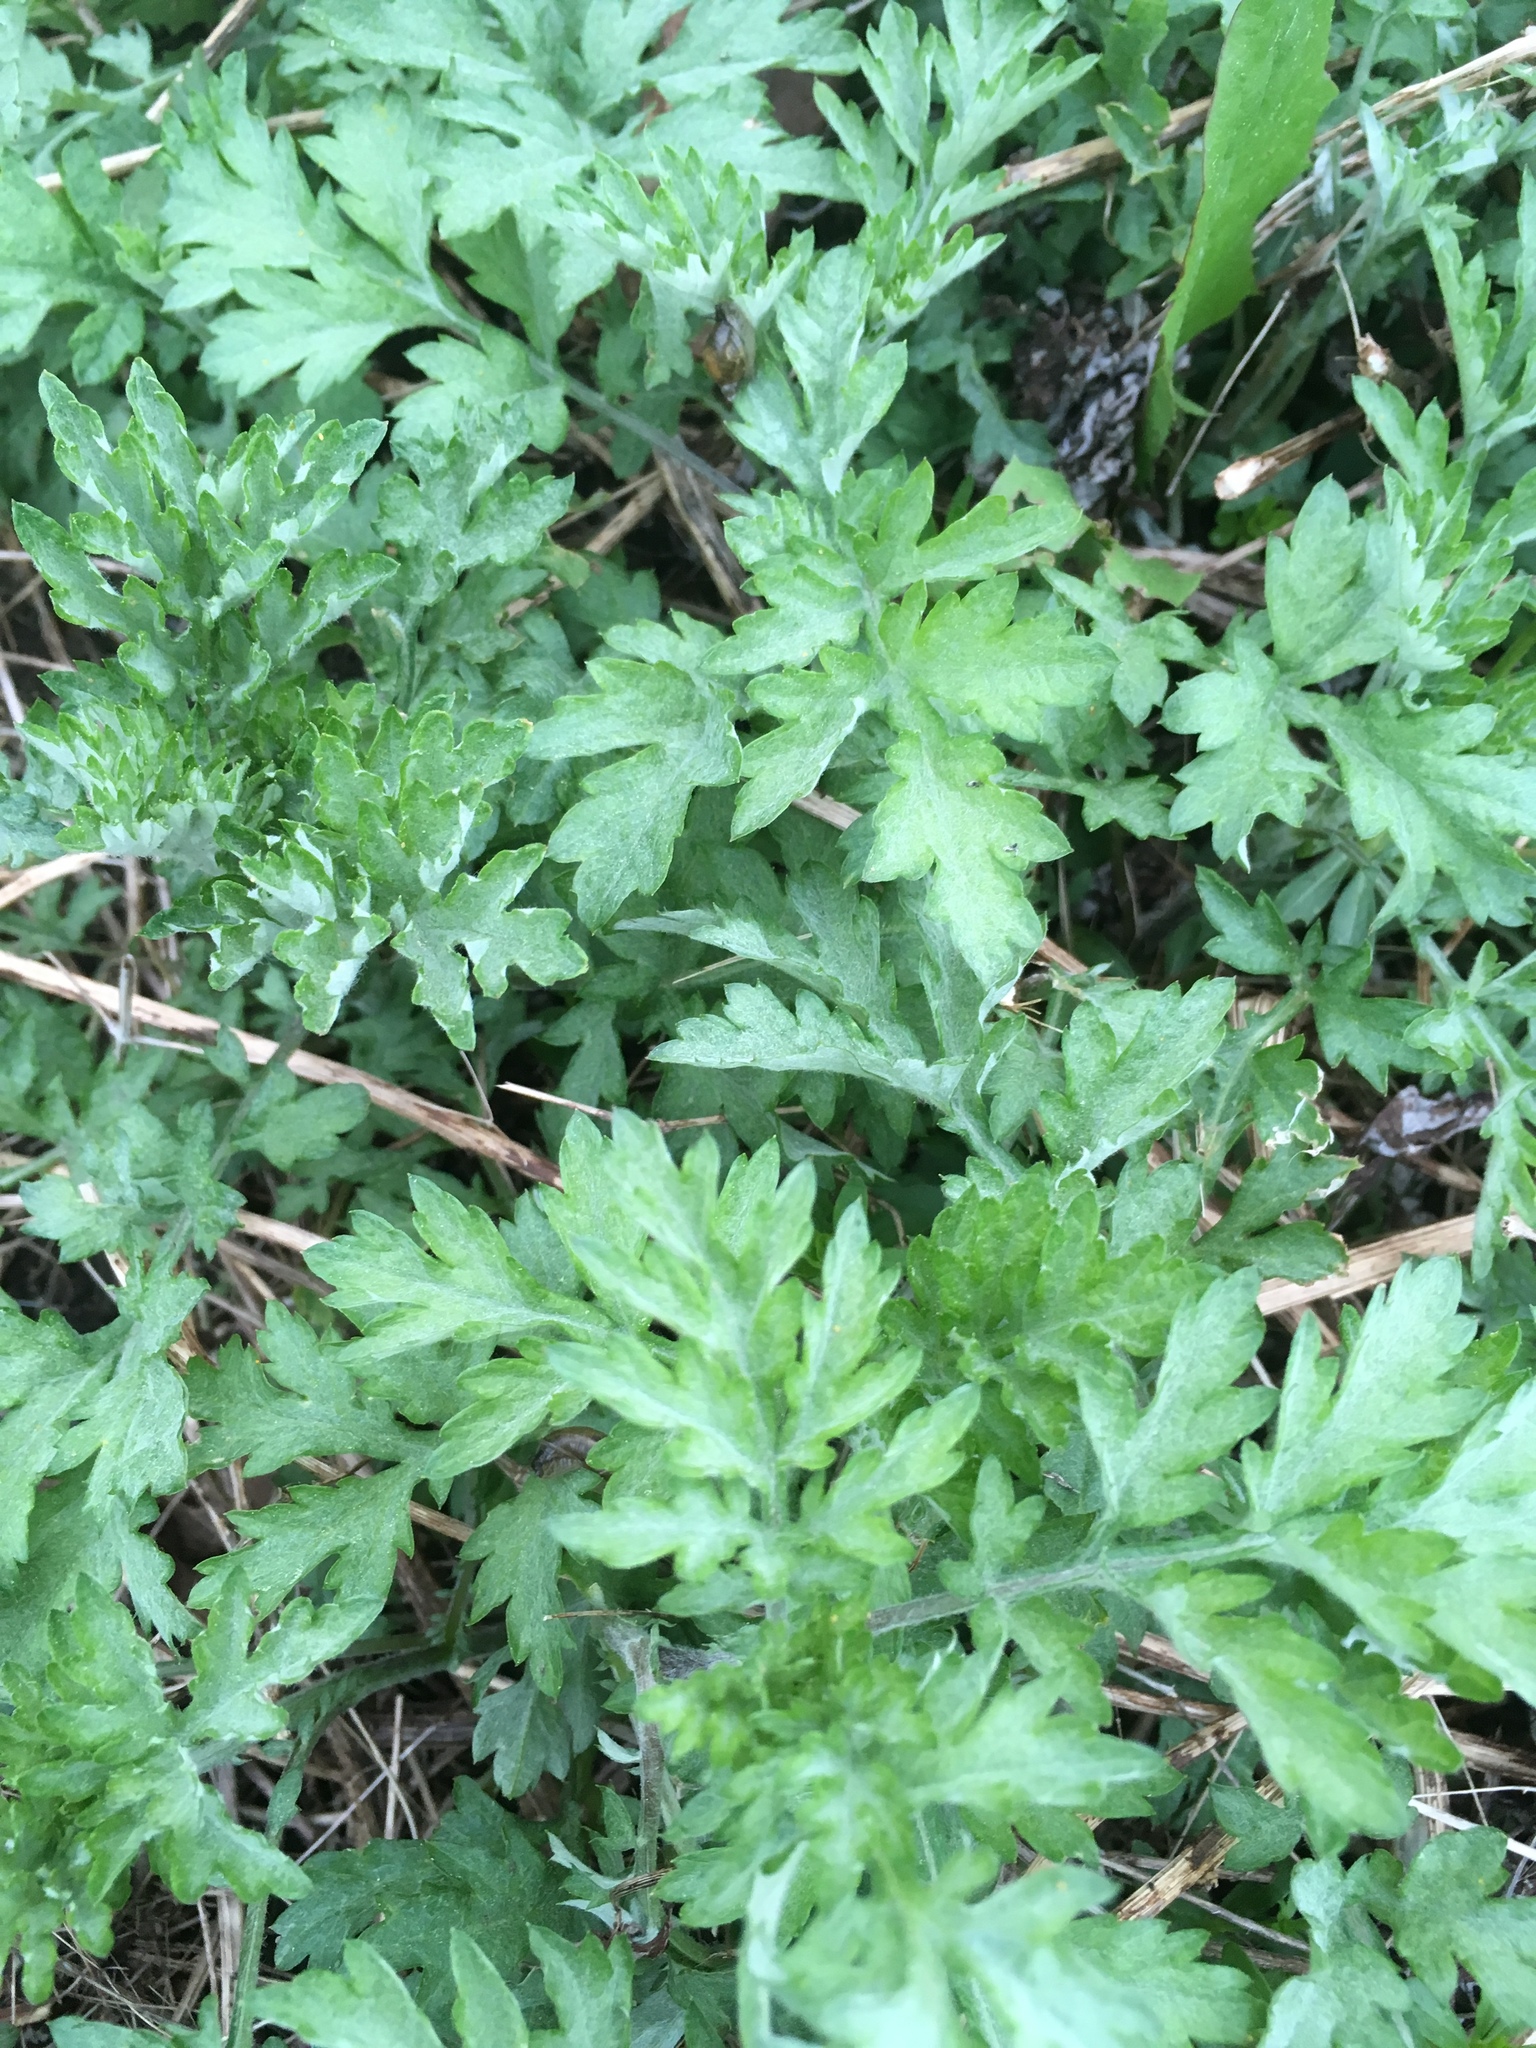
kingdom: Plantae
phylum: Tracheophyta
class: Magnoliopsida
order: Asterales
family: Asteraceae
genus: Artemisia
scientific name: Artemisia vulgaris
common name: Mugwort
